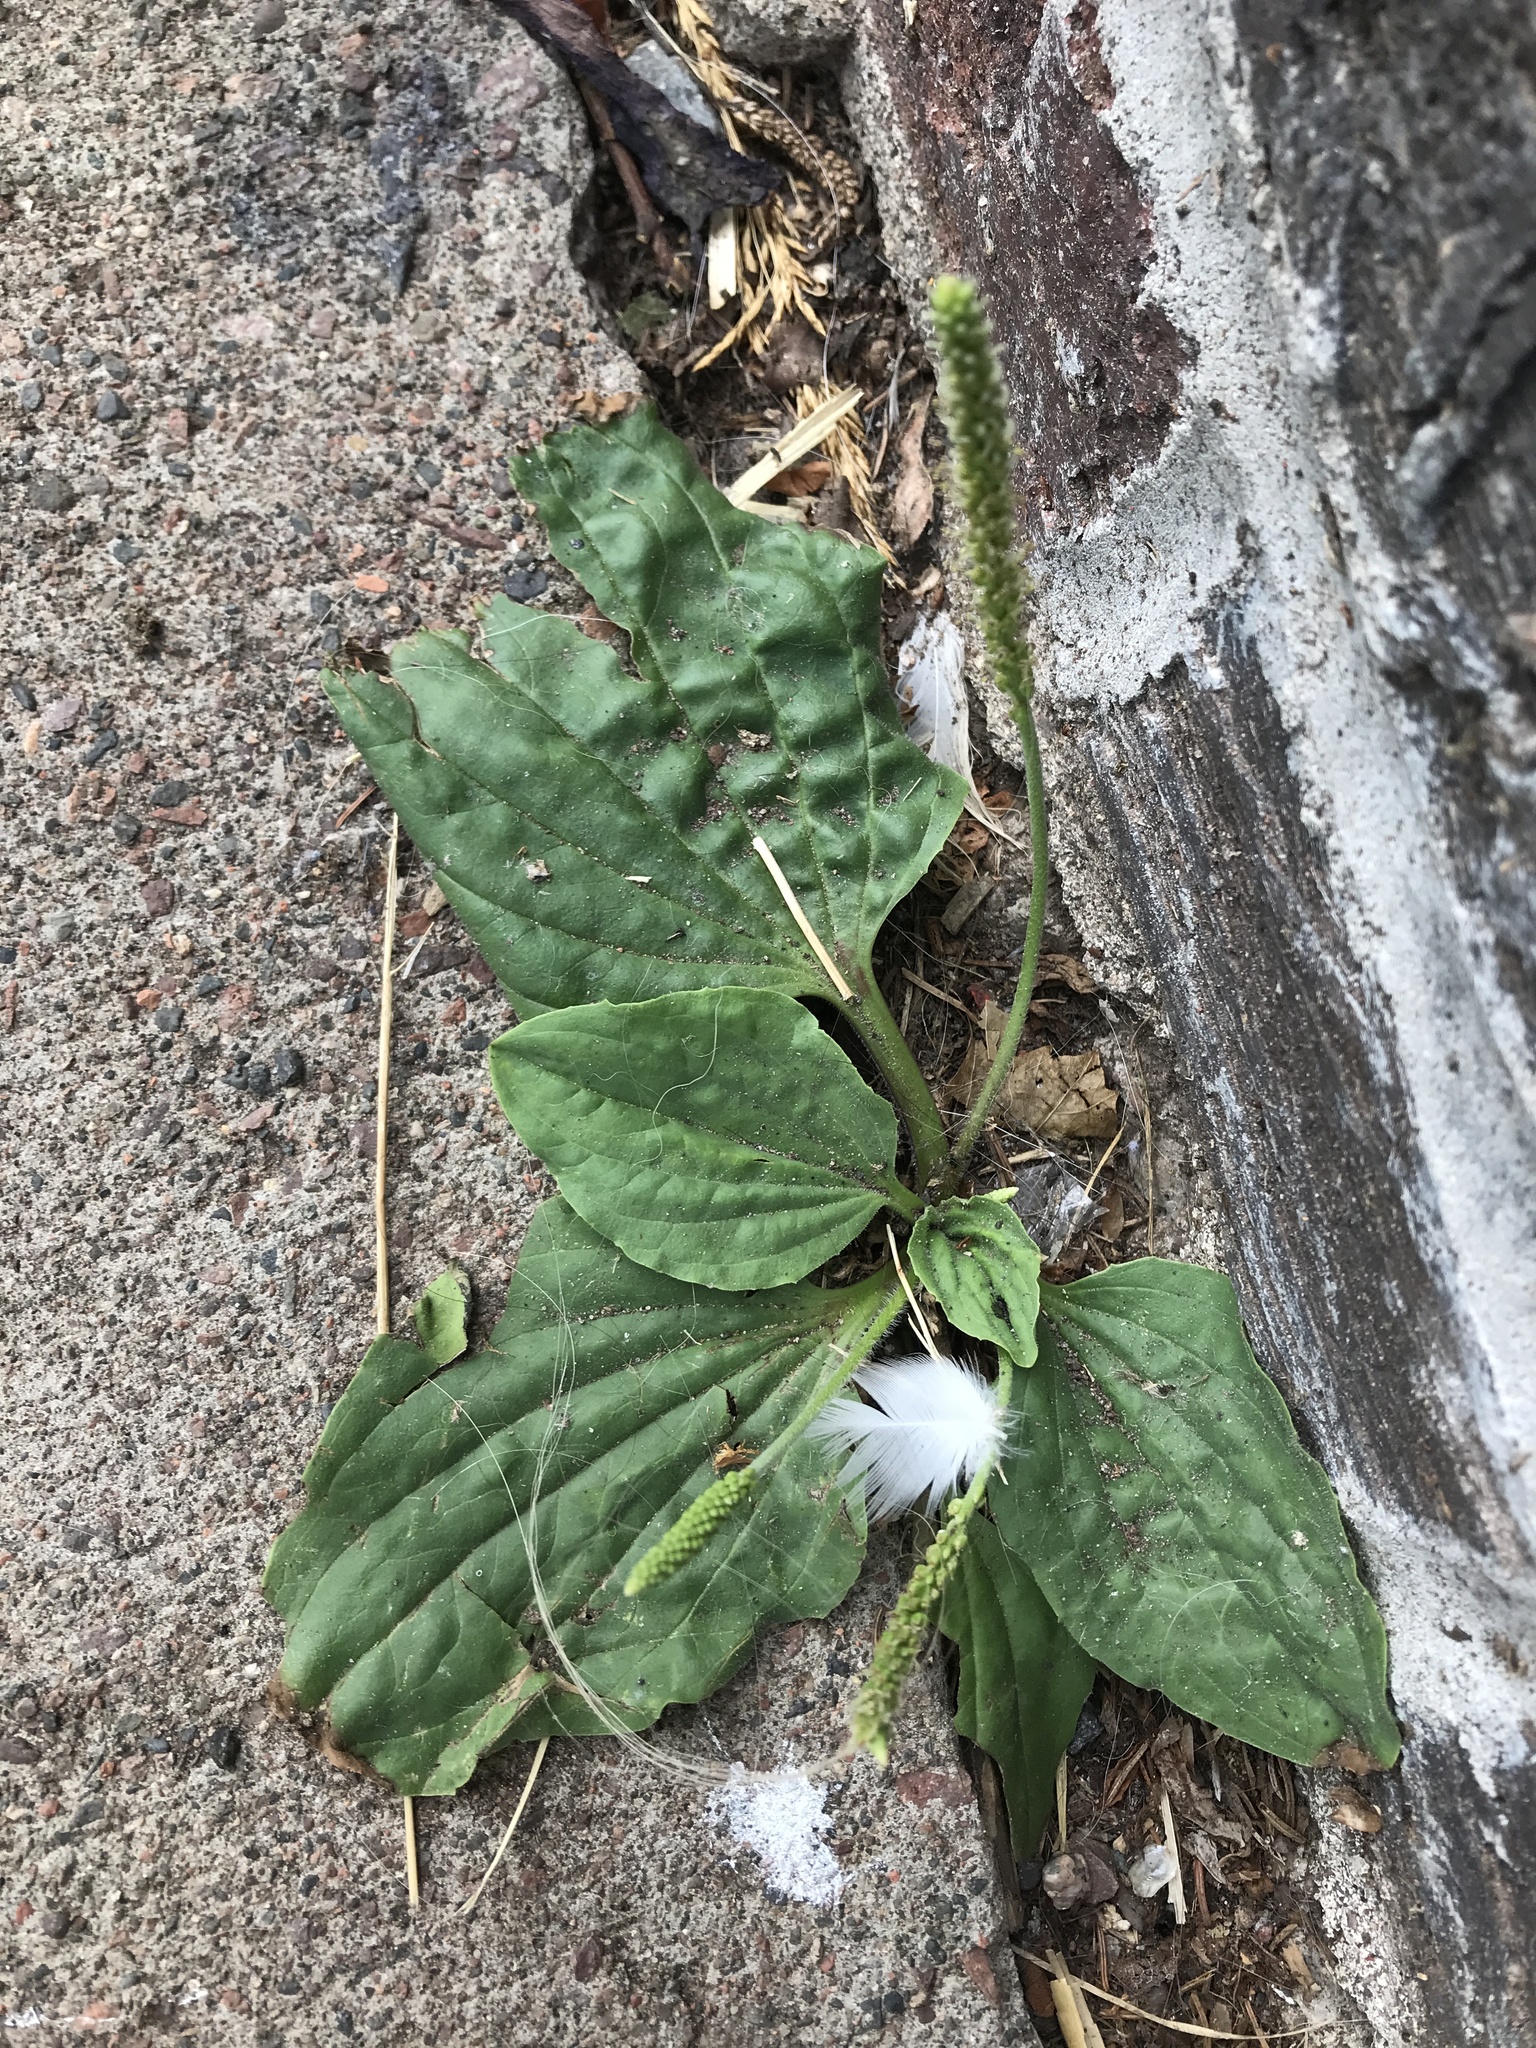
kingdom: Plantae
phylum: Tracheophyta
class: Magnoliopsida
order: Lamiales
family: Plantaginaceae
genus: Plantago
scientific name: Plantago
